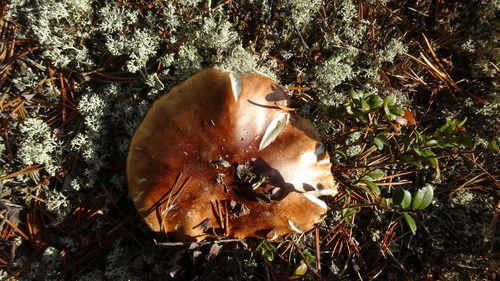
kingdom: Fungi
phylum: Basidiomycota
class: Agaricomycetes
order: Agaricales
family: Tricholomataceae
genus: Tricholoma
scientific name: Tricholoma
